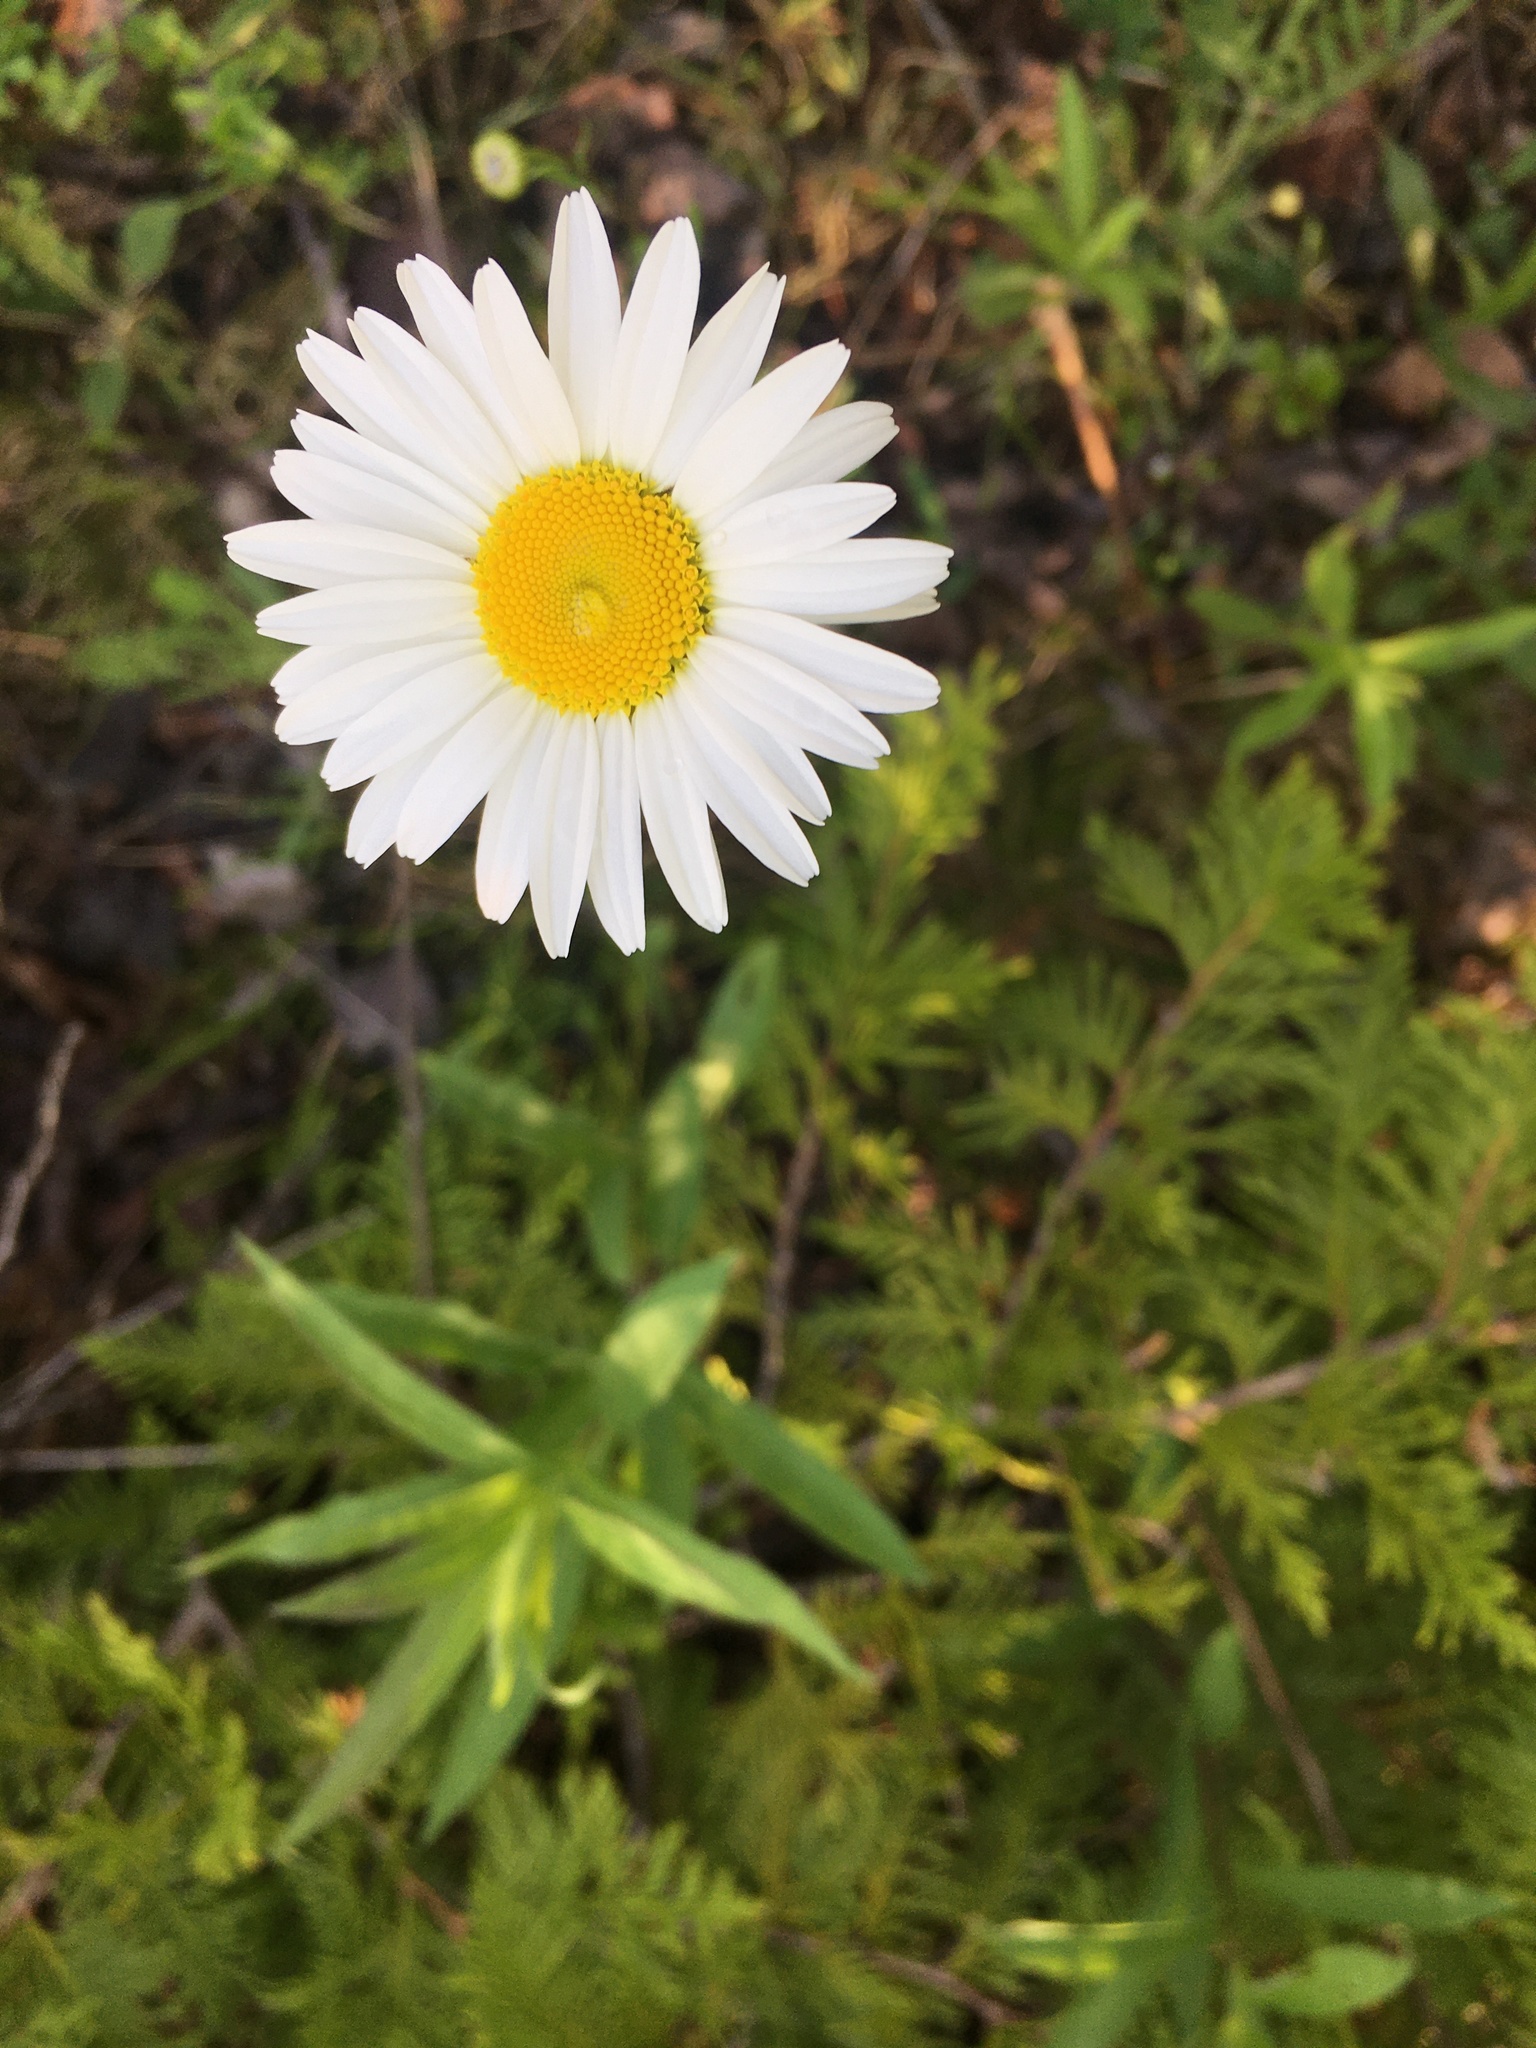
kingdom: Plantae
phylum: Tracheophyta
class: Magnoliopsida
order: Asterales
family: Asteraceae
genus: Leucanthemum
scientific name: Leucanthemum vulgare
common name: Oxeye daisy
